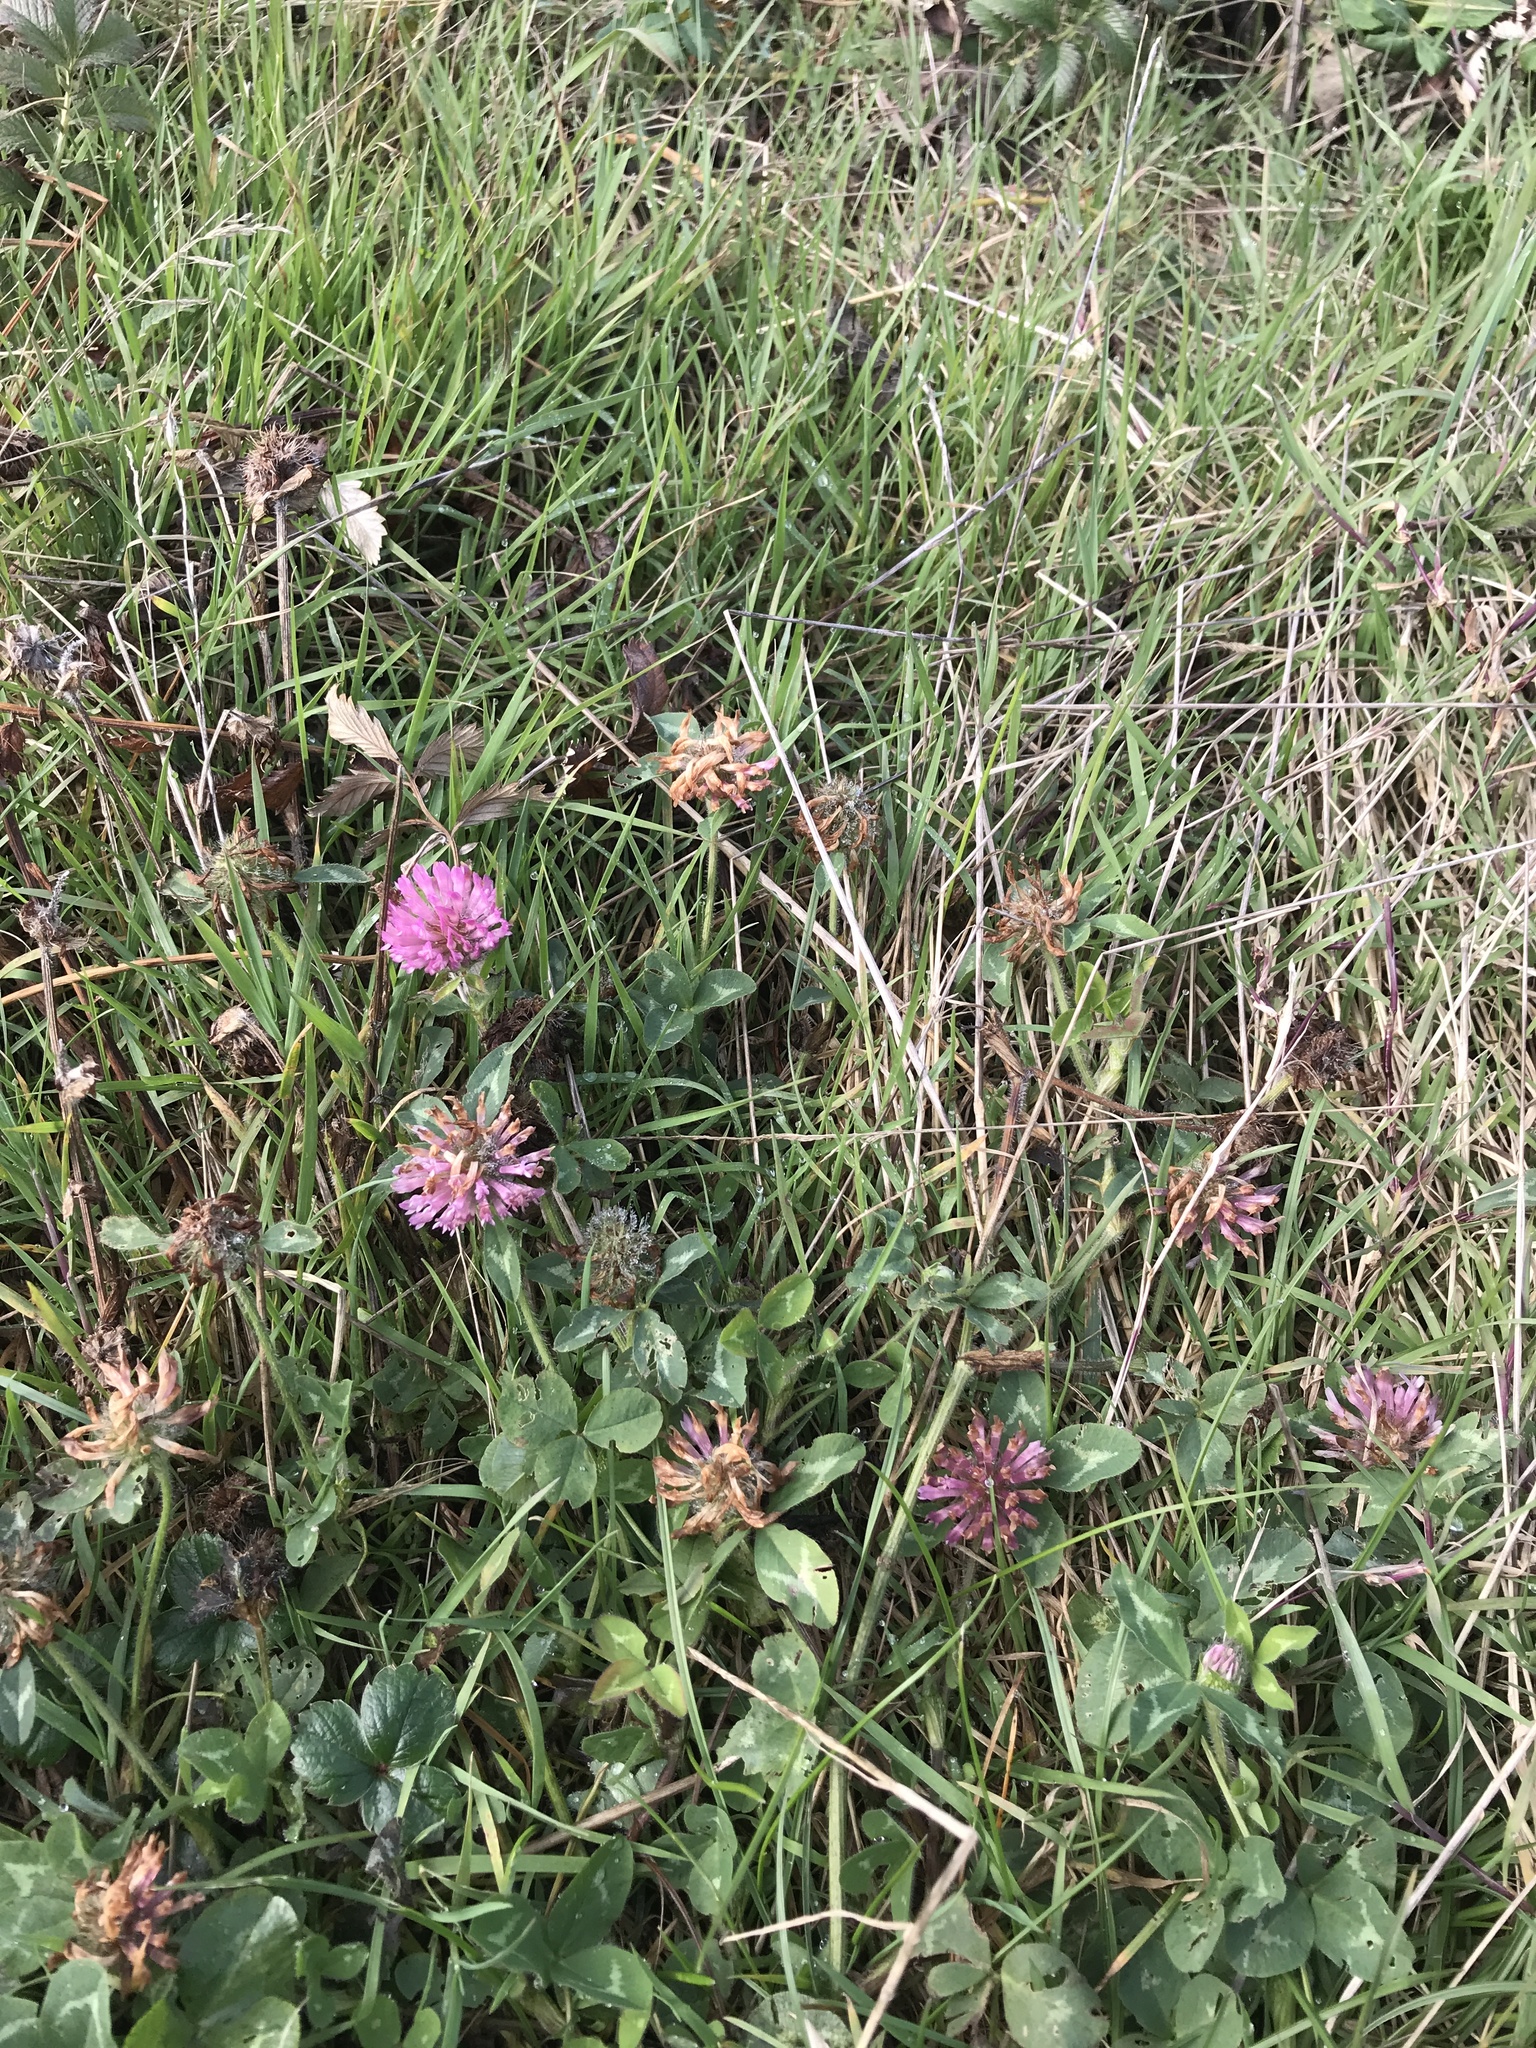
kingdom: Plantae
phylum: Tracheophyta
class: Magnoliopsida
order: Fabales
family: Fabaceae
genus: Trifolium
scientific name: Trifolium pratense
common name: Red clover
